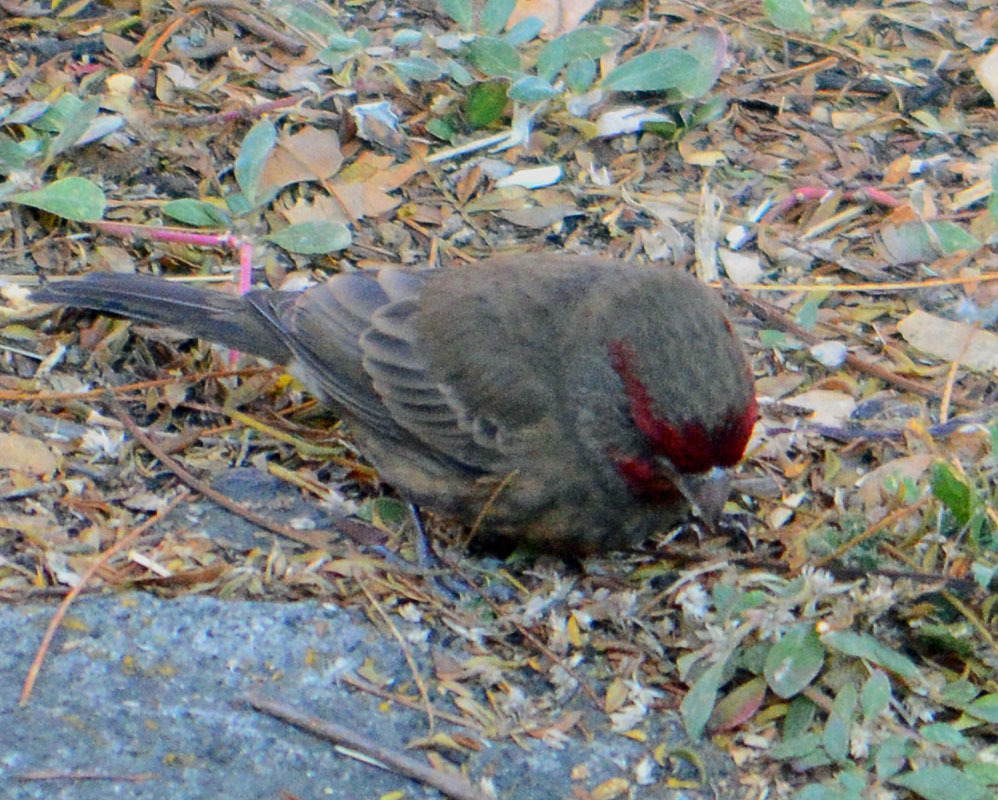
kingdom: Animalia
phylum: Chordata
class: Aves
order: Passeriformes
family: Fringillidae
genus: Haemorhous
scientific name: Haemorhous mexicanus
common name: House finch
